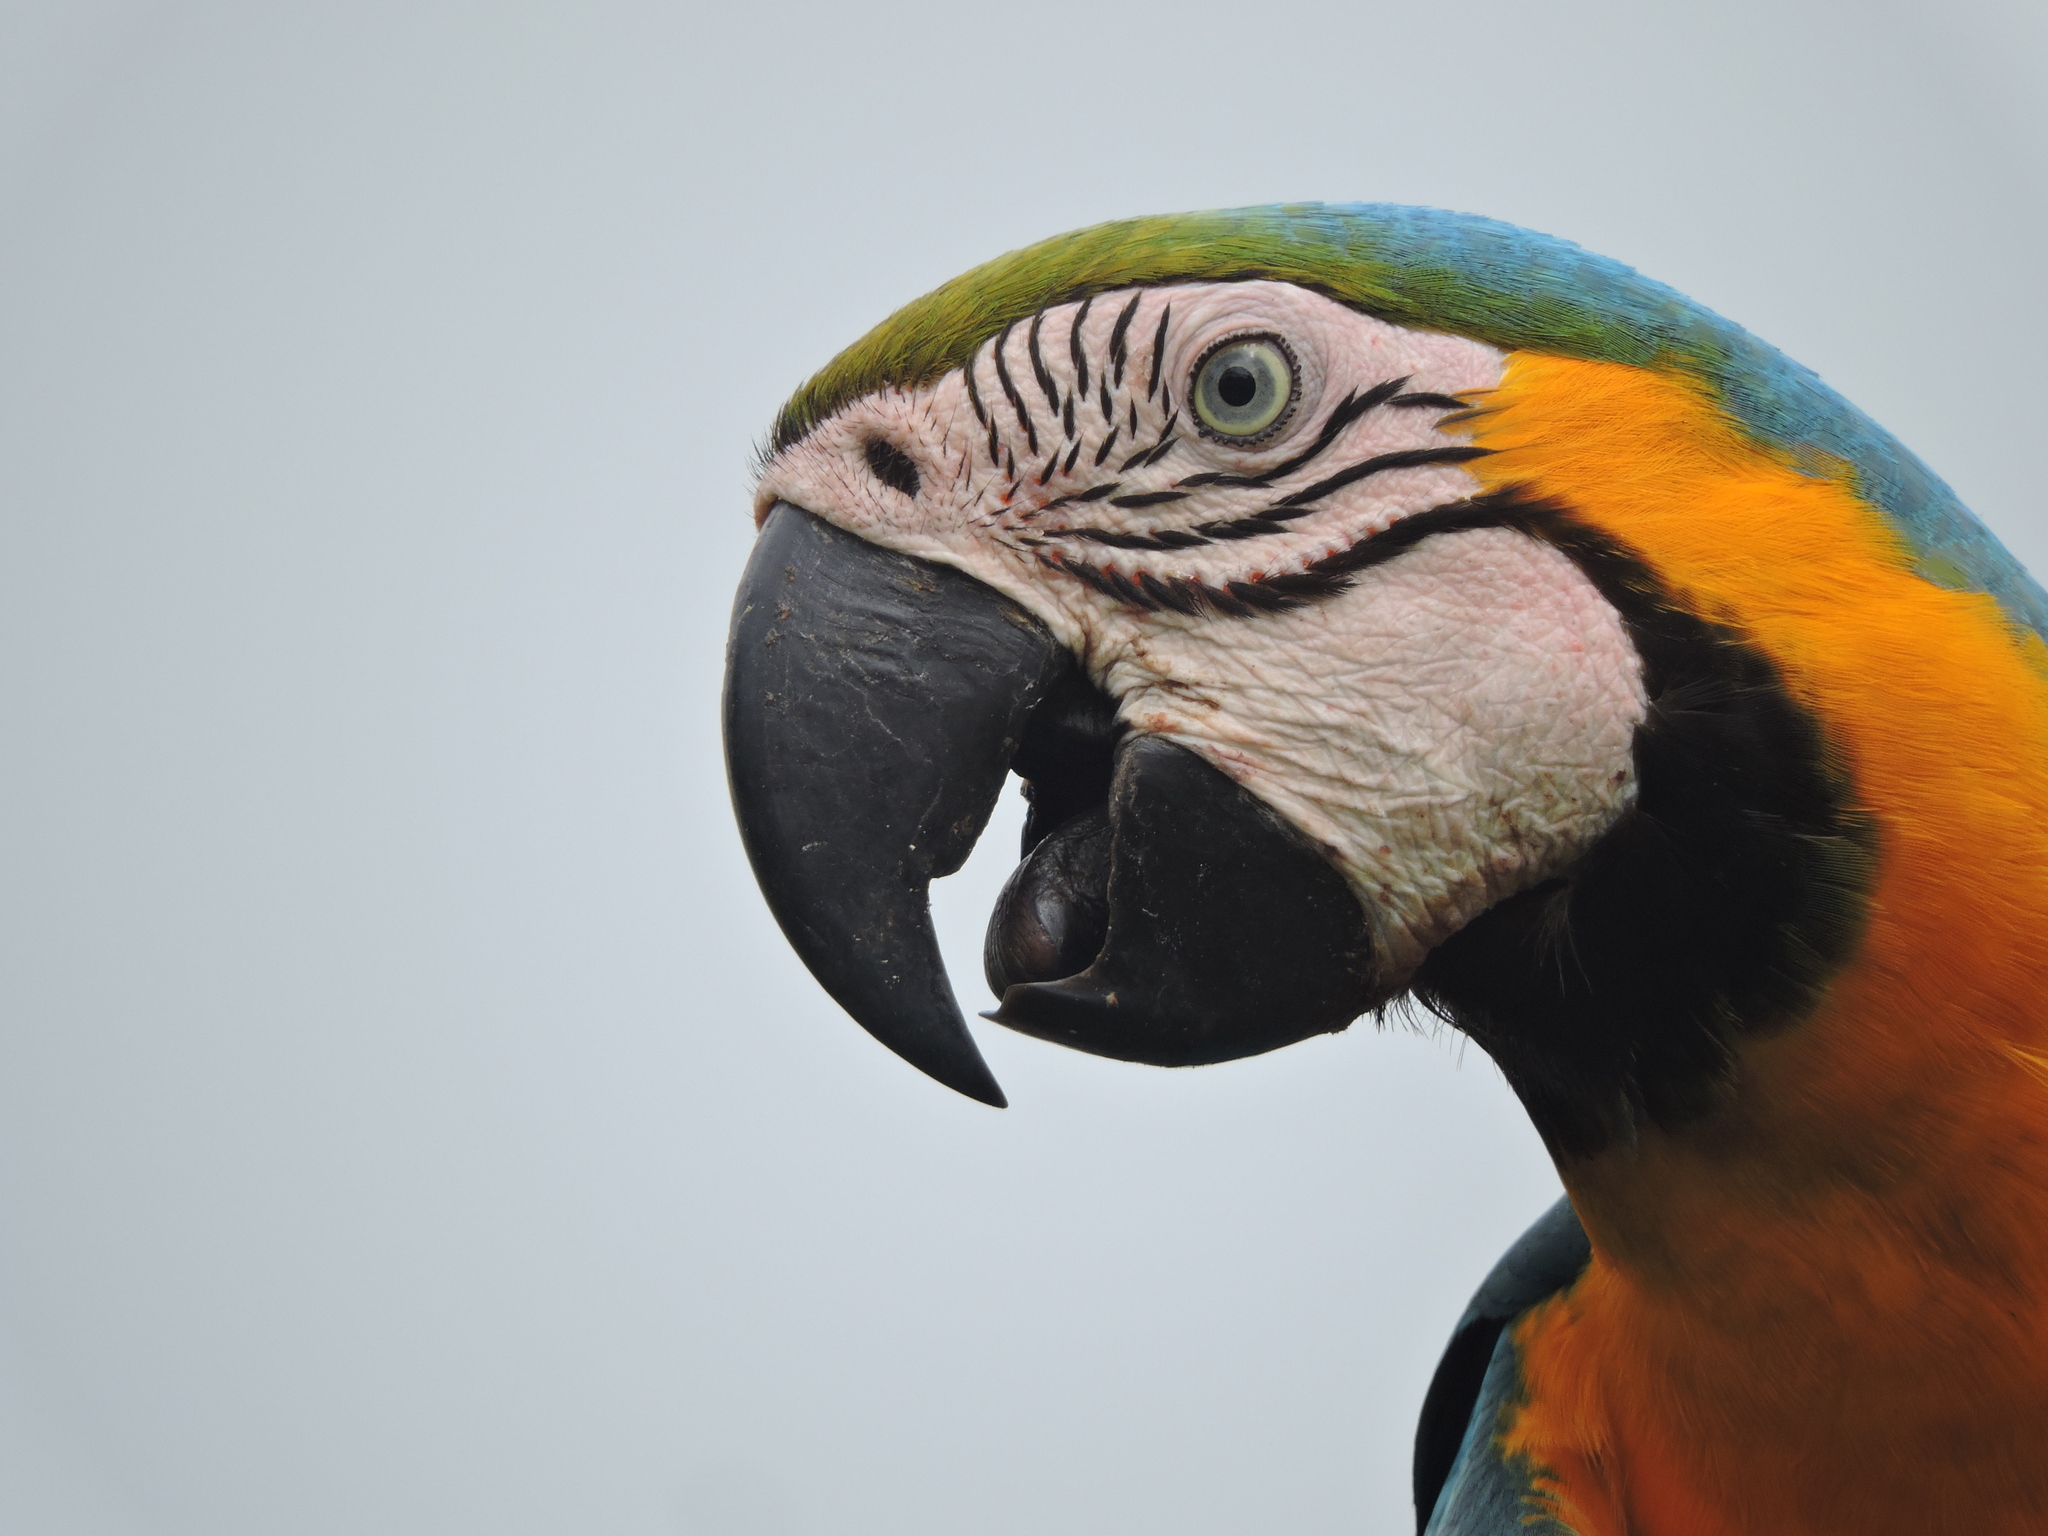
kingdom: Animalia
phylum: Chordata
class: Aves
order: Psittaciformes
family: Psittacidae
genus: Ara
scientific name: Ara ararauna
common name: Blue-and-yellow macaw
